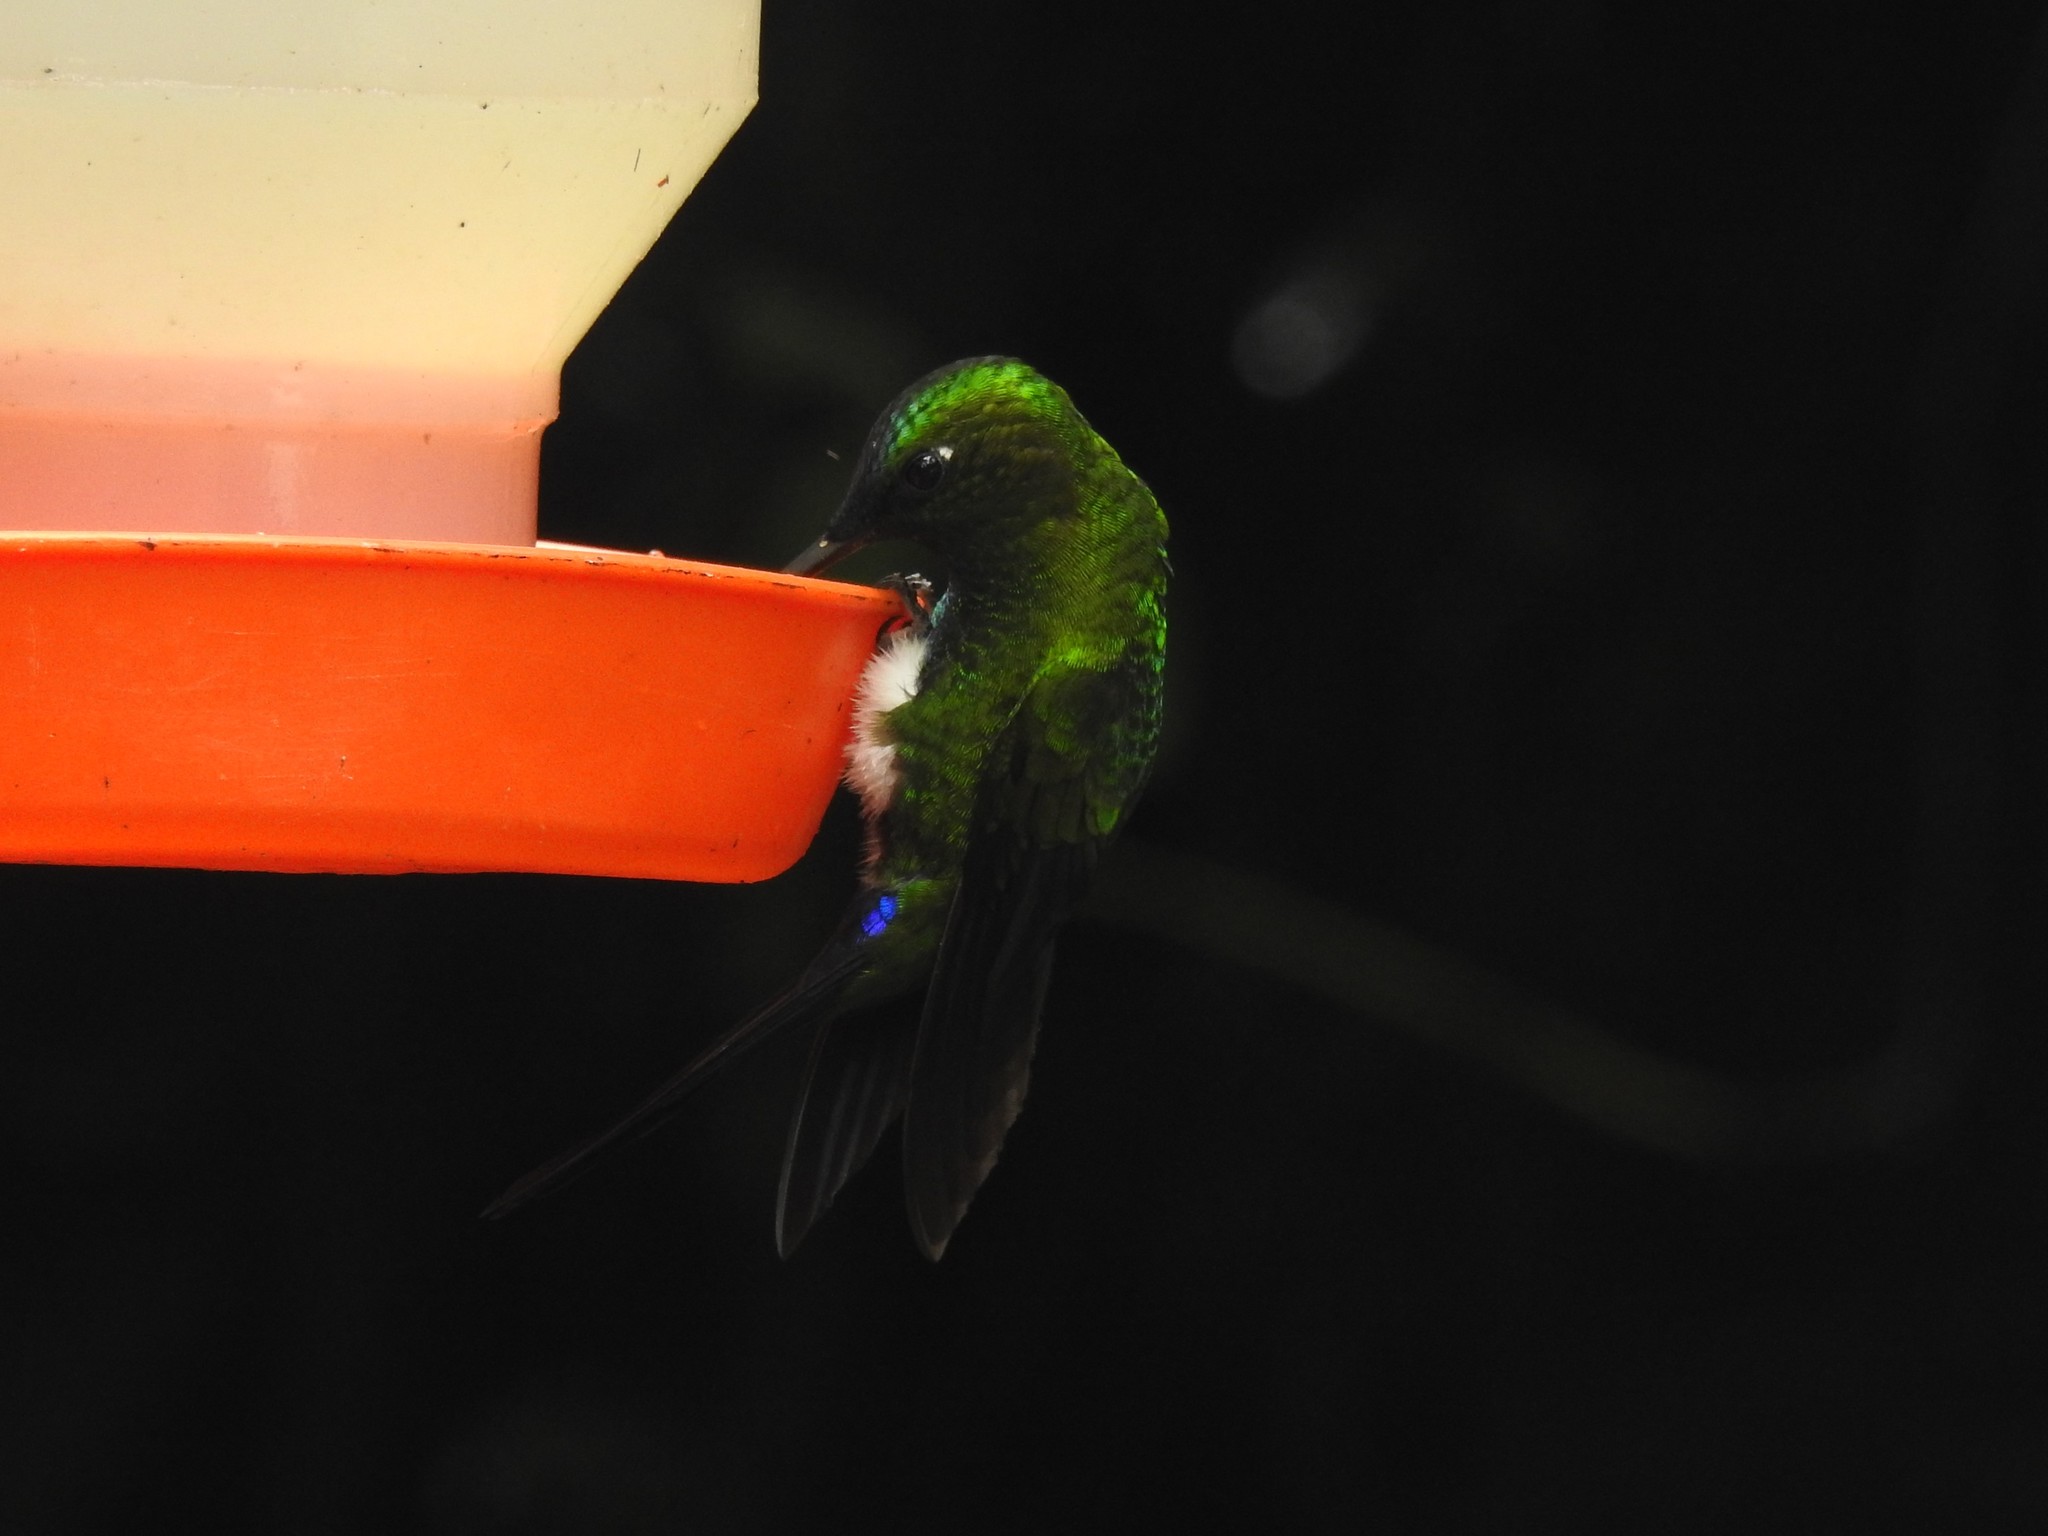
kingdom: Animalia
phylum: Chordata
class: Aves
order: Apodiformes
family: Trochilidae
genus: Eriocnemis
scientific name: Eriocnemis luciani
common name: Sapphire-vented puffleg
